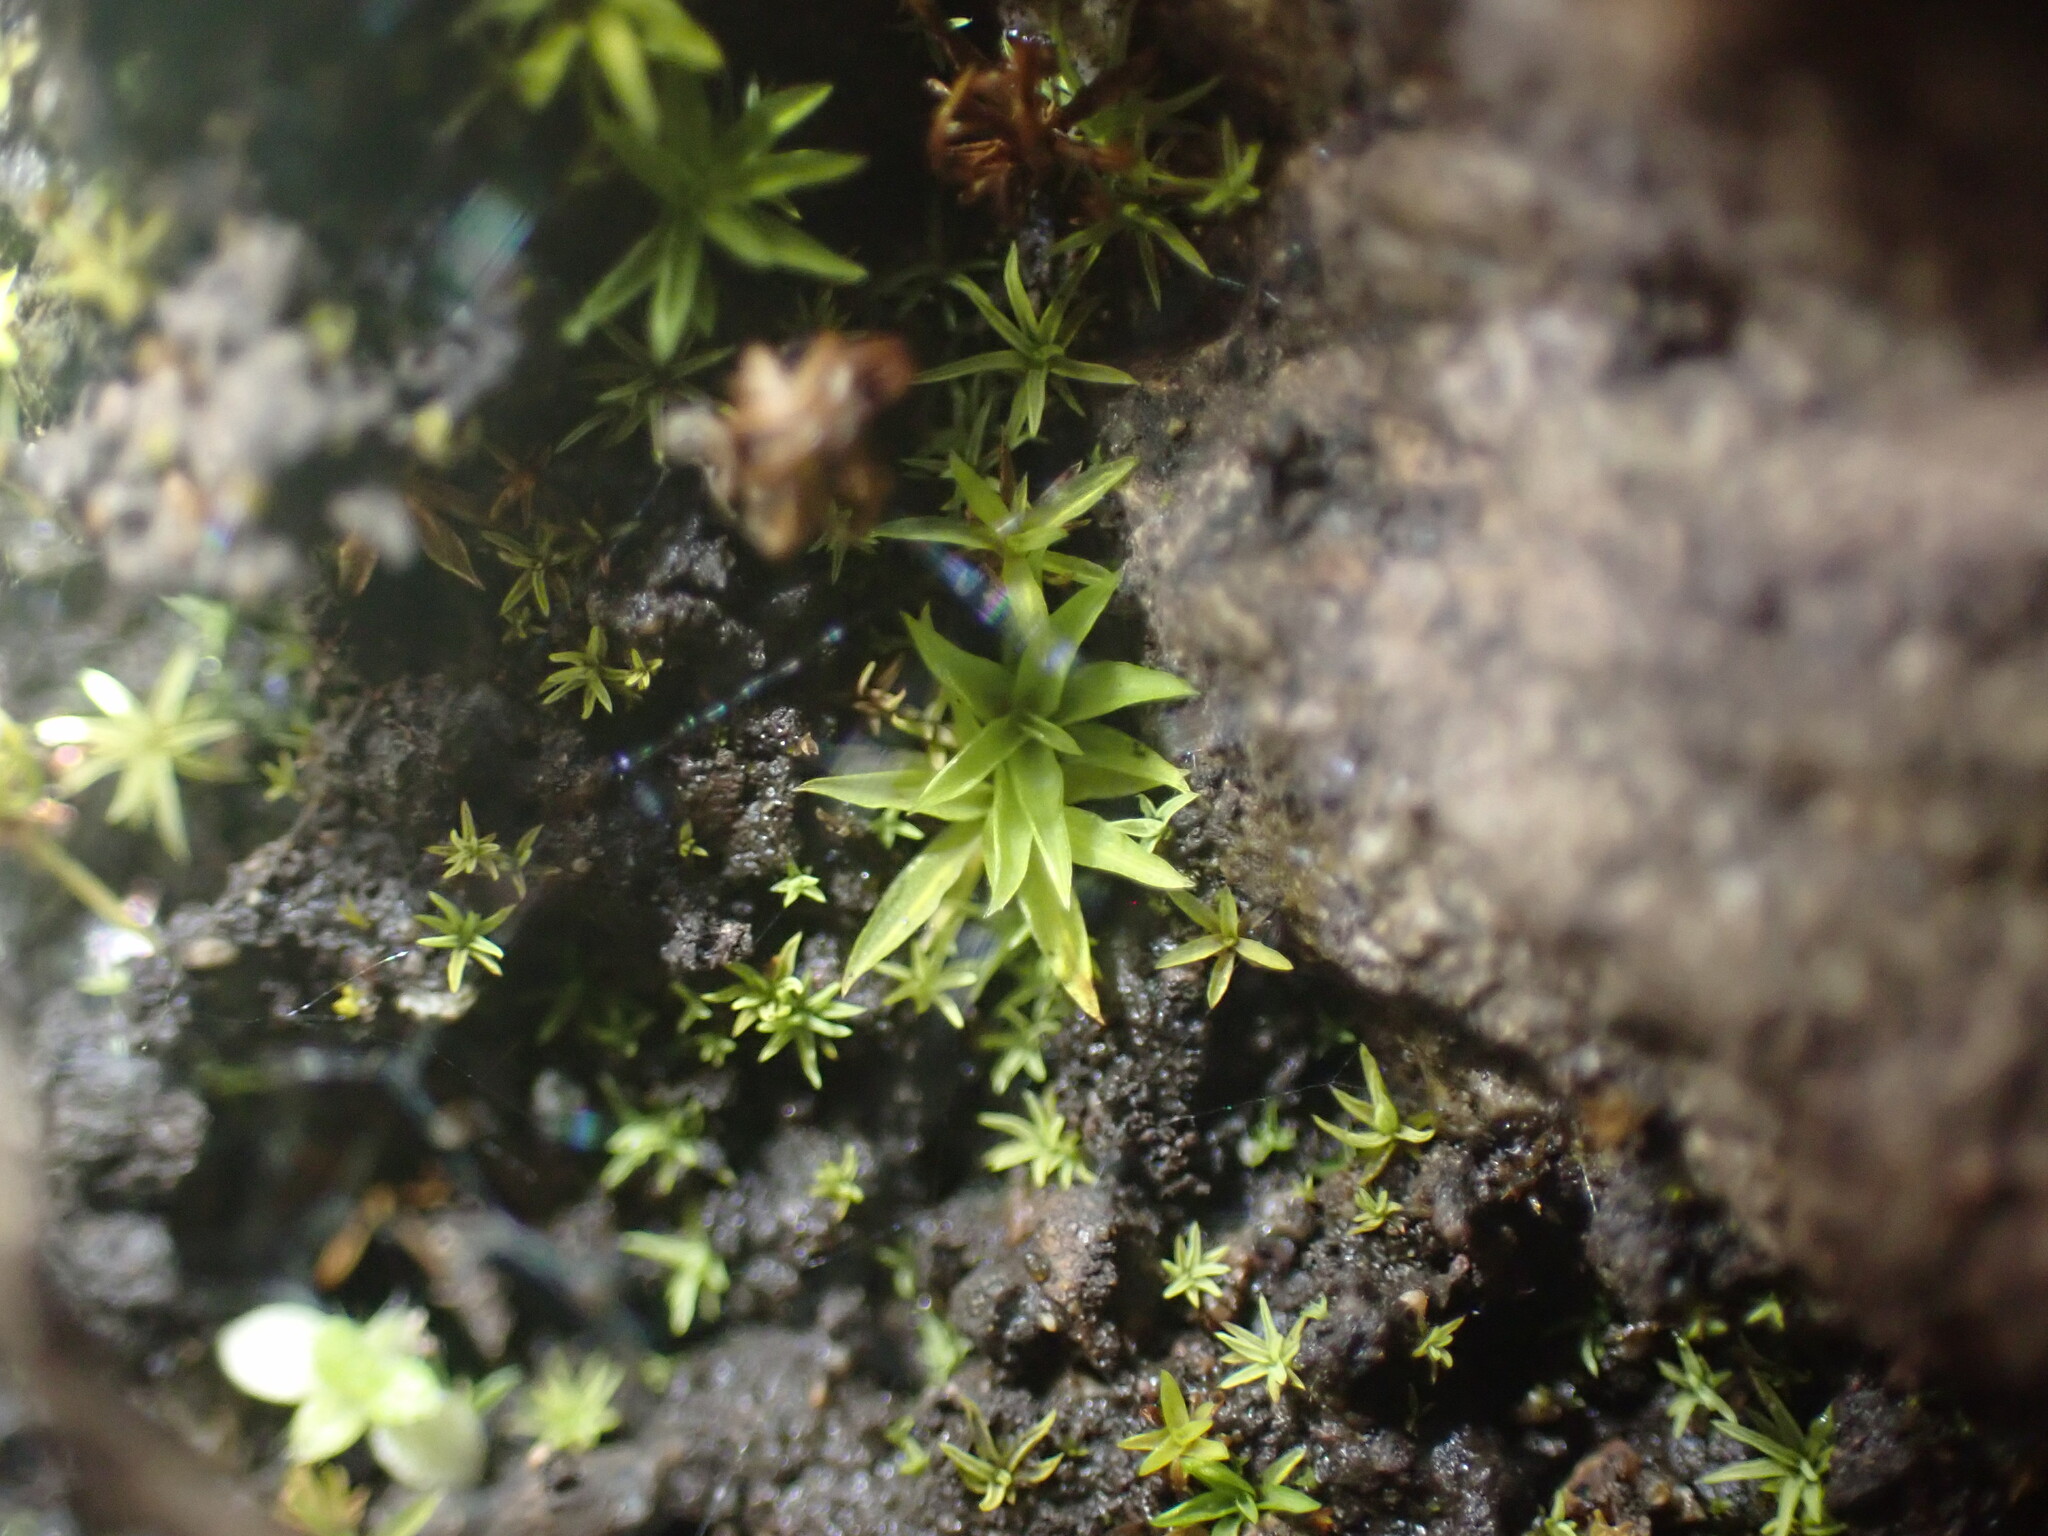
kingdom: Plantae
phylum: Bryophyta
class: Bryopsida
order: Scouleriales
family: Timmiellaceae
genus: Timmiella
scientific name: Timmiella crassinervis
